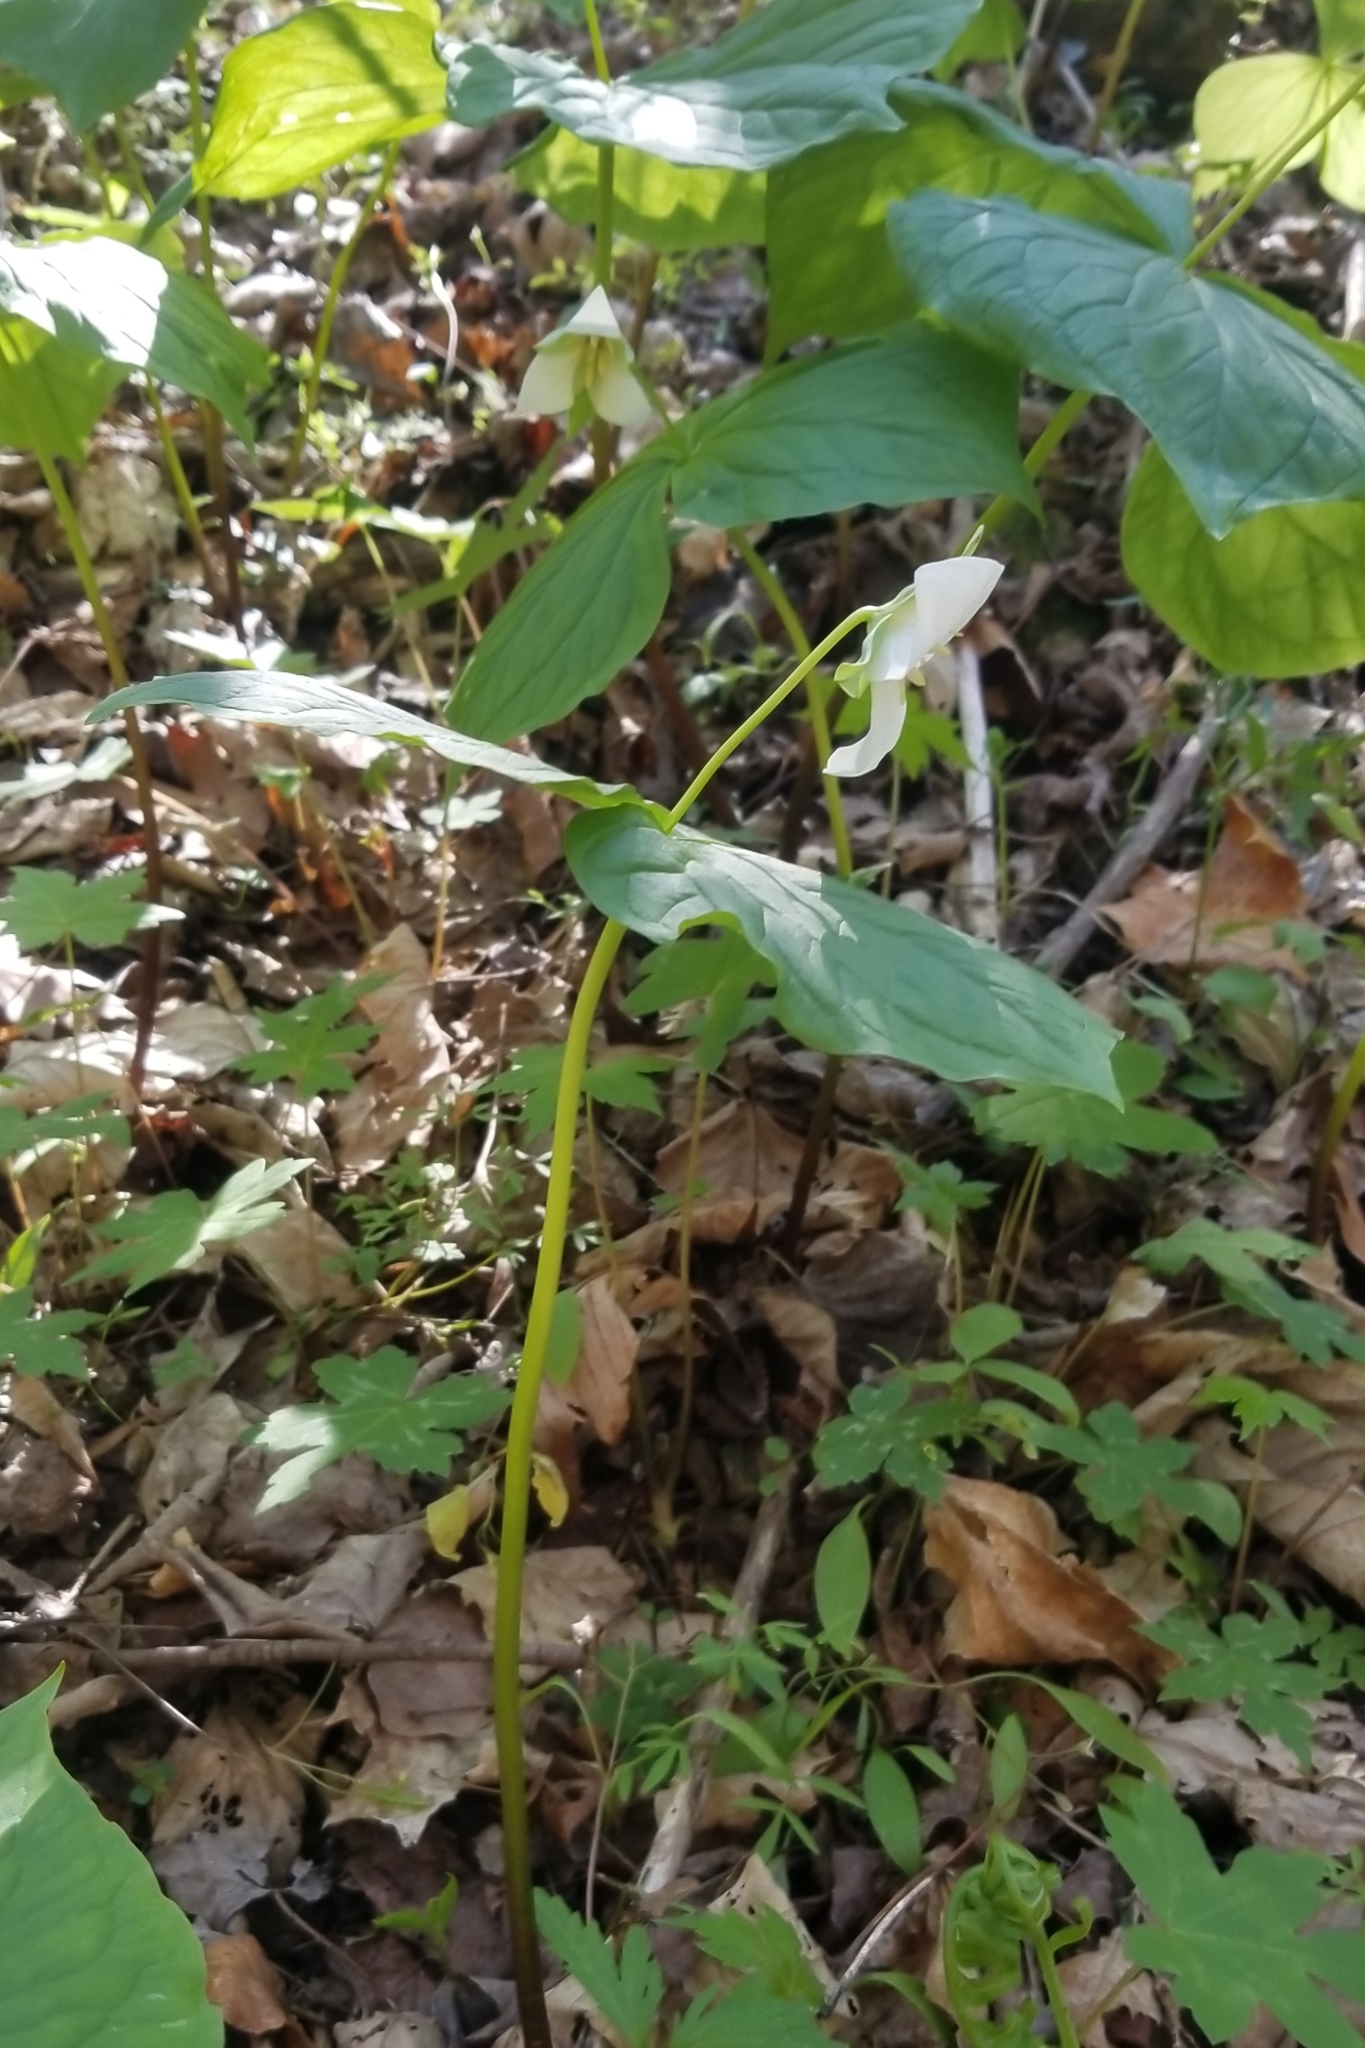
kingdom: Plantae
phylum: Tracheophyta
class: Liliopsida
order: Liliales
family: Melanthiaceae
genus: Trillium
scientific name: Trillium flexipes
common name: Drooping trillium
